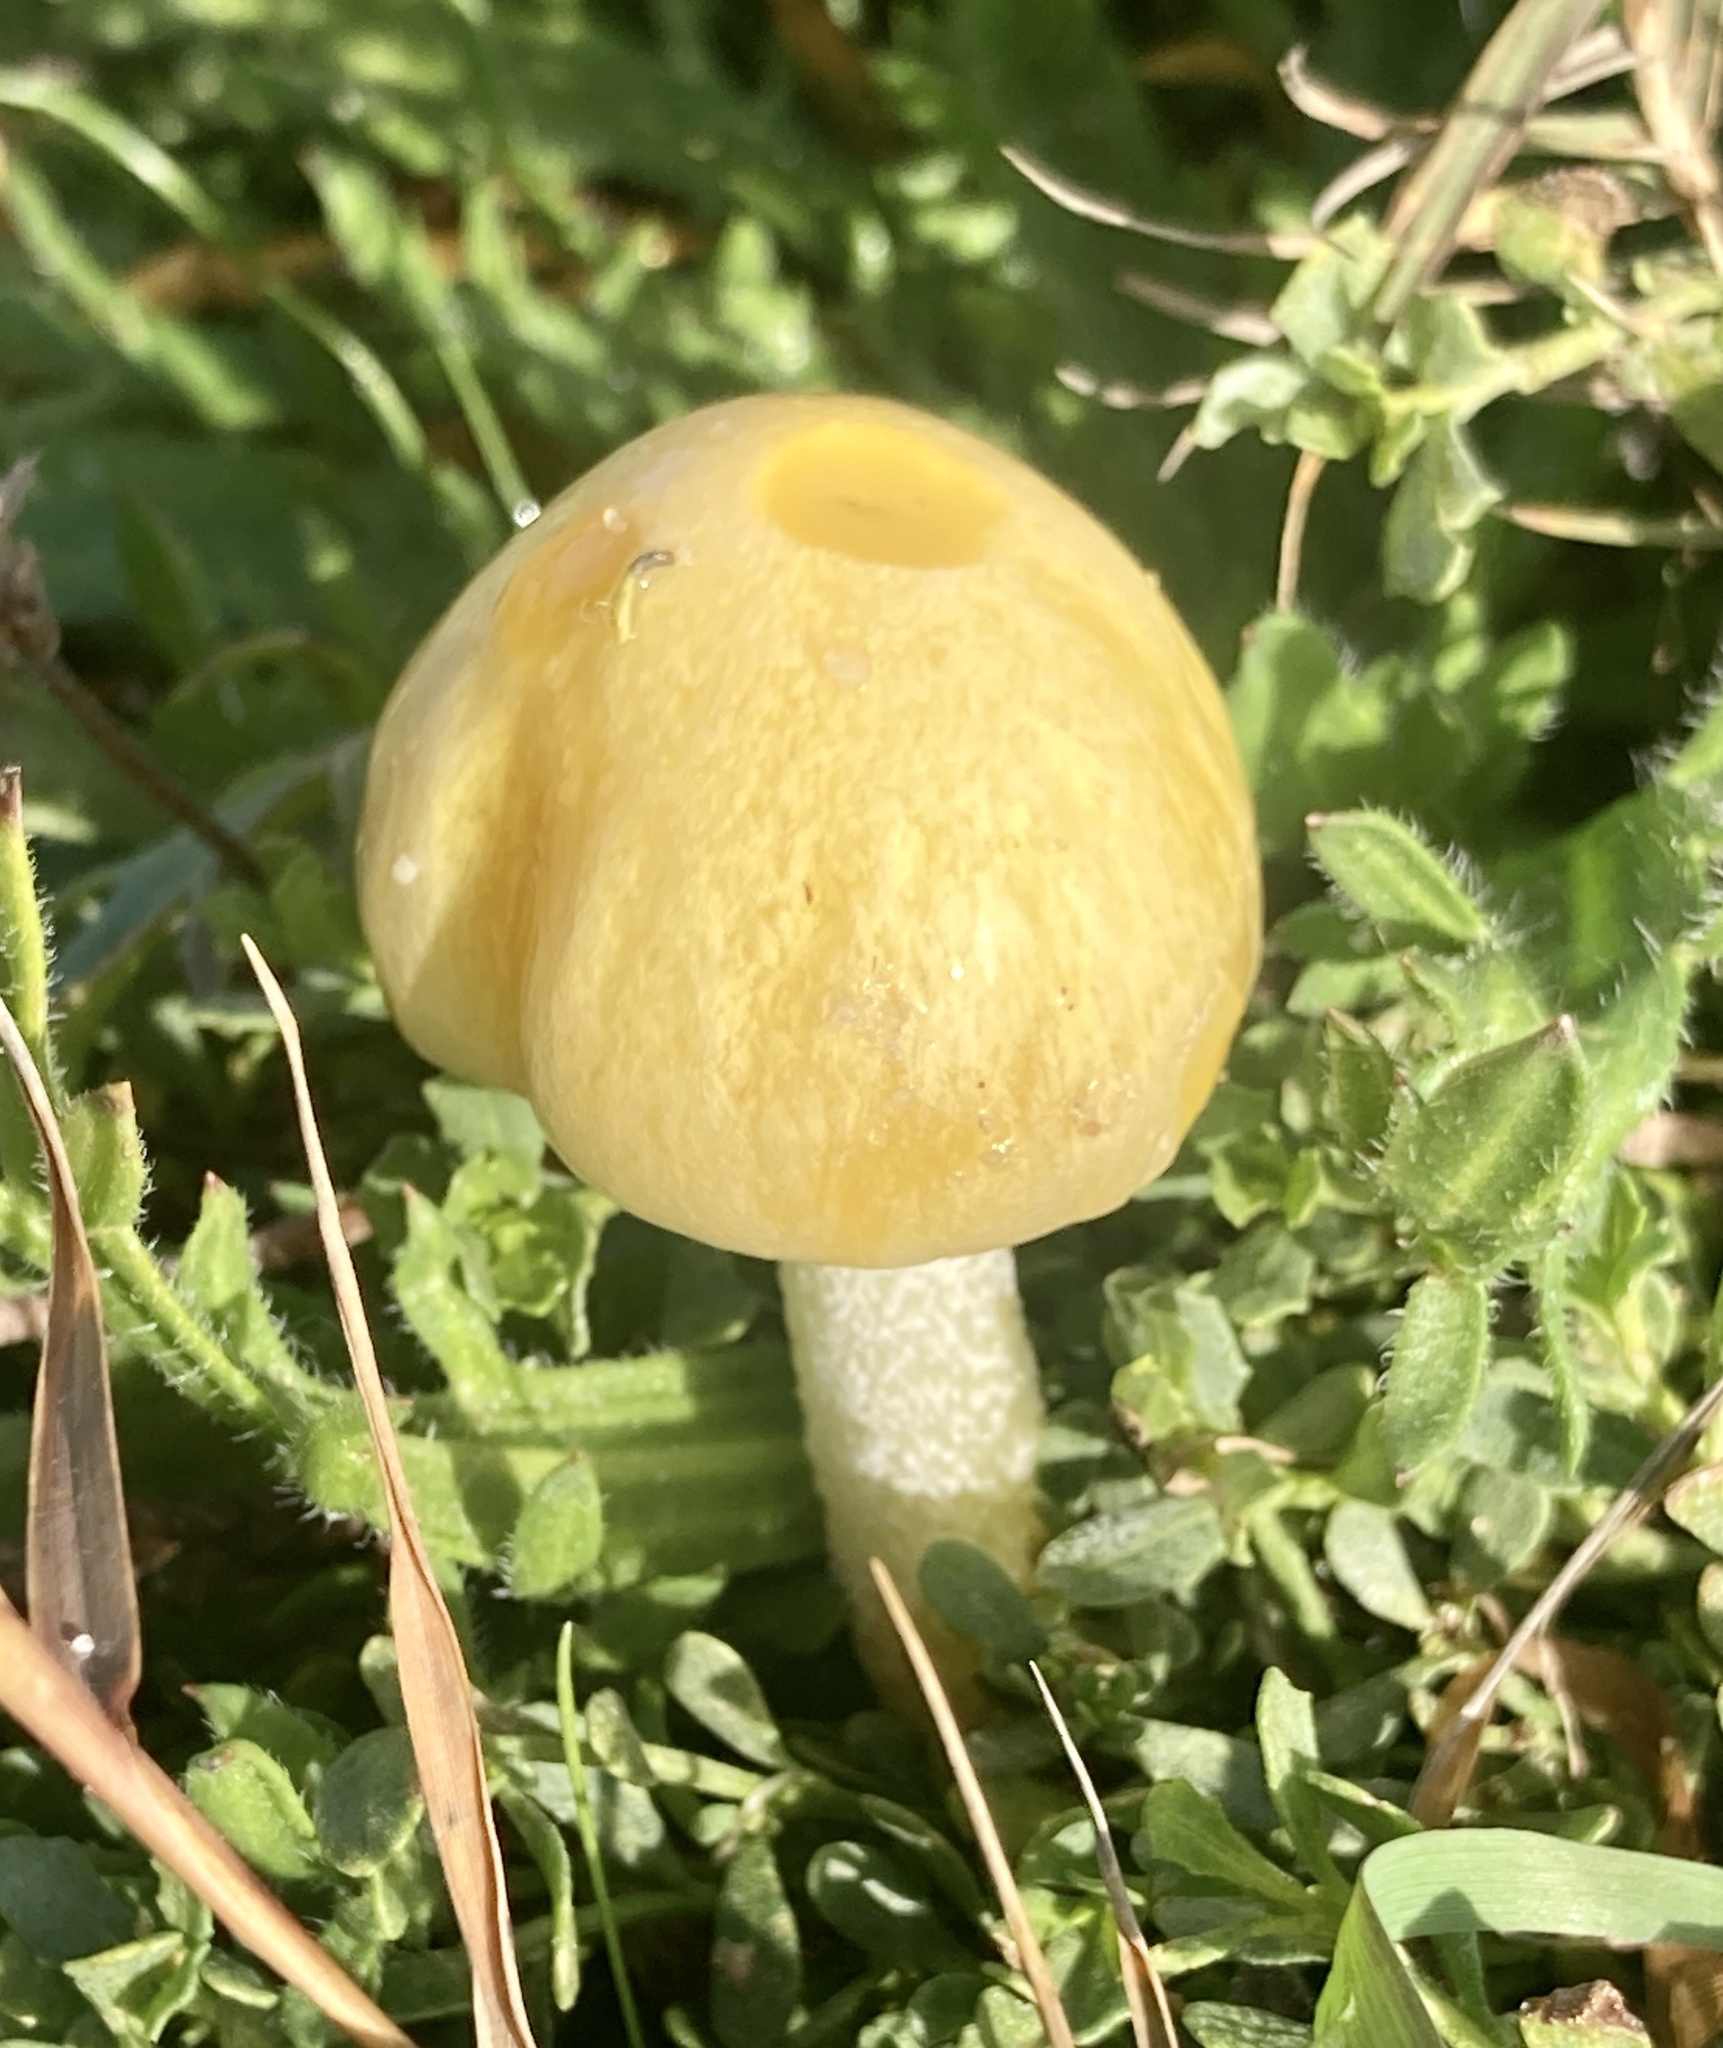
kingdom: Fungi
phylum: Basidiomycota
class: Agaricomycetes
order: Agaricales
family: Bolbitiaceae
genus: Bolbitius
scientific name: Bolbitius titubans
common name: Yellow fieldcap
